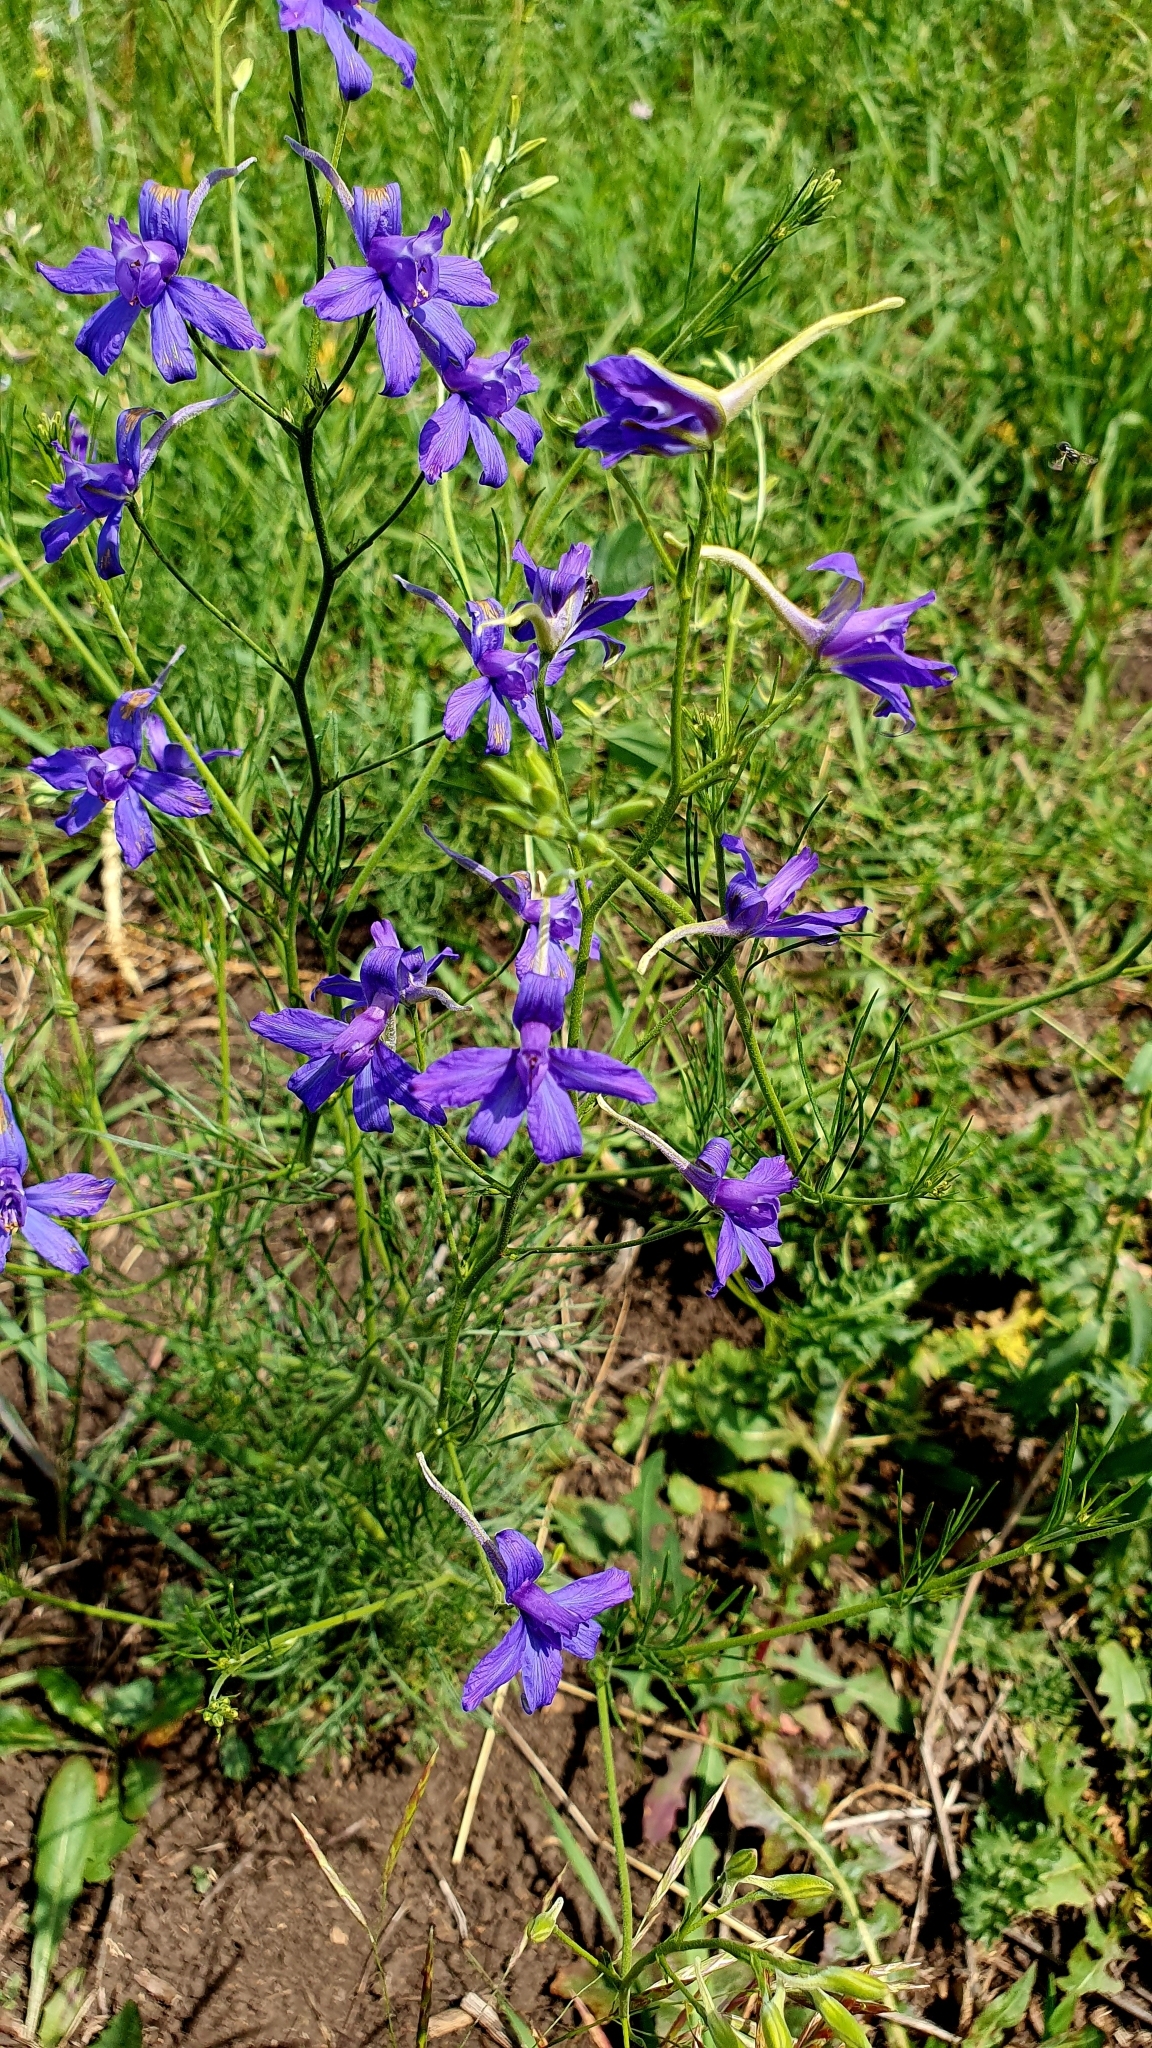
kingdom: Plantae
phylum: Tracheophyta
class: Magnoliopsida
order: Ranunculales
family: Ranunculaceae
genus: Delphinium
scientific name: Delphinium consolida
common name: Branching larkspur
